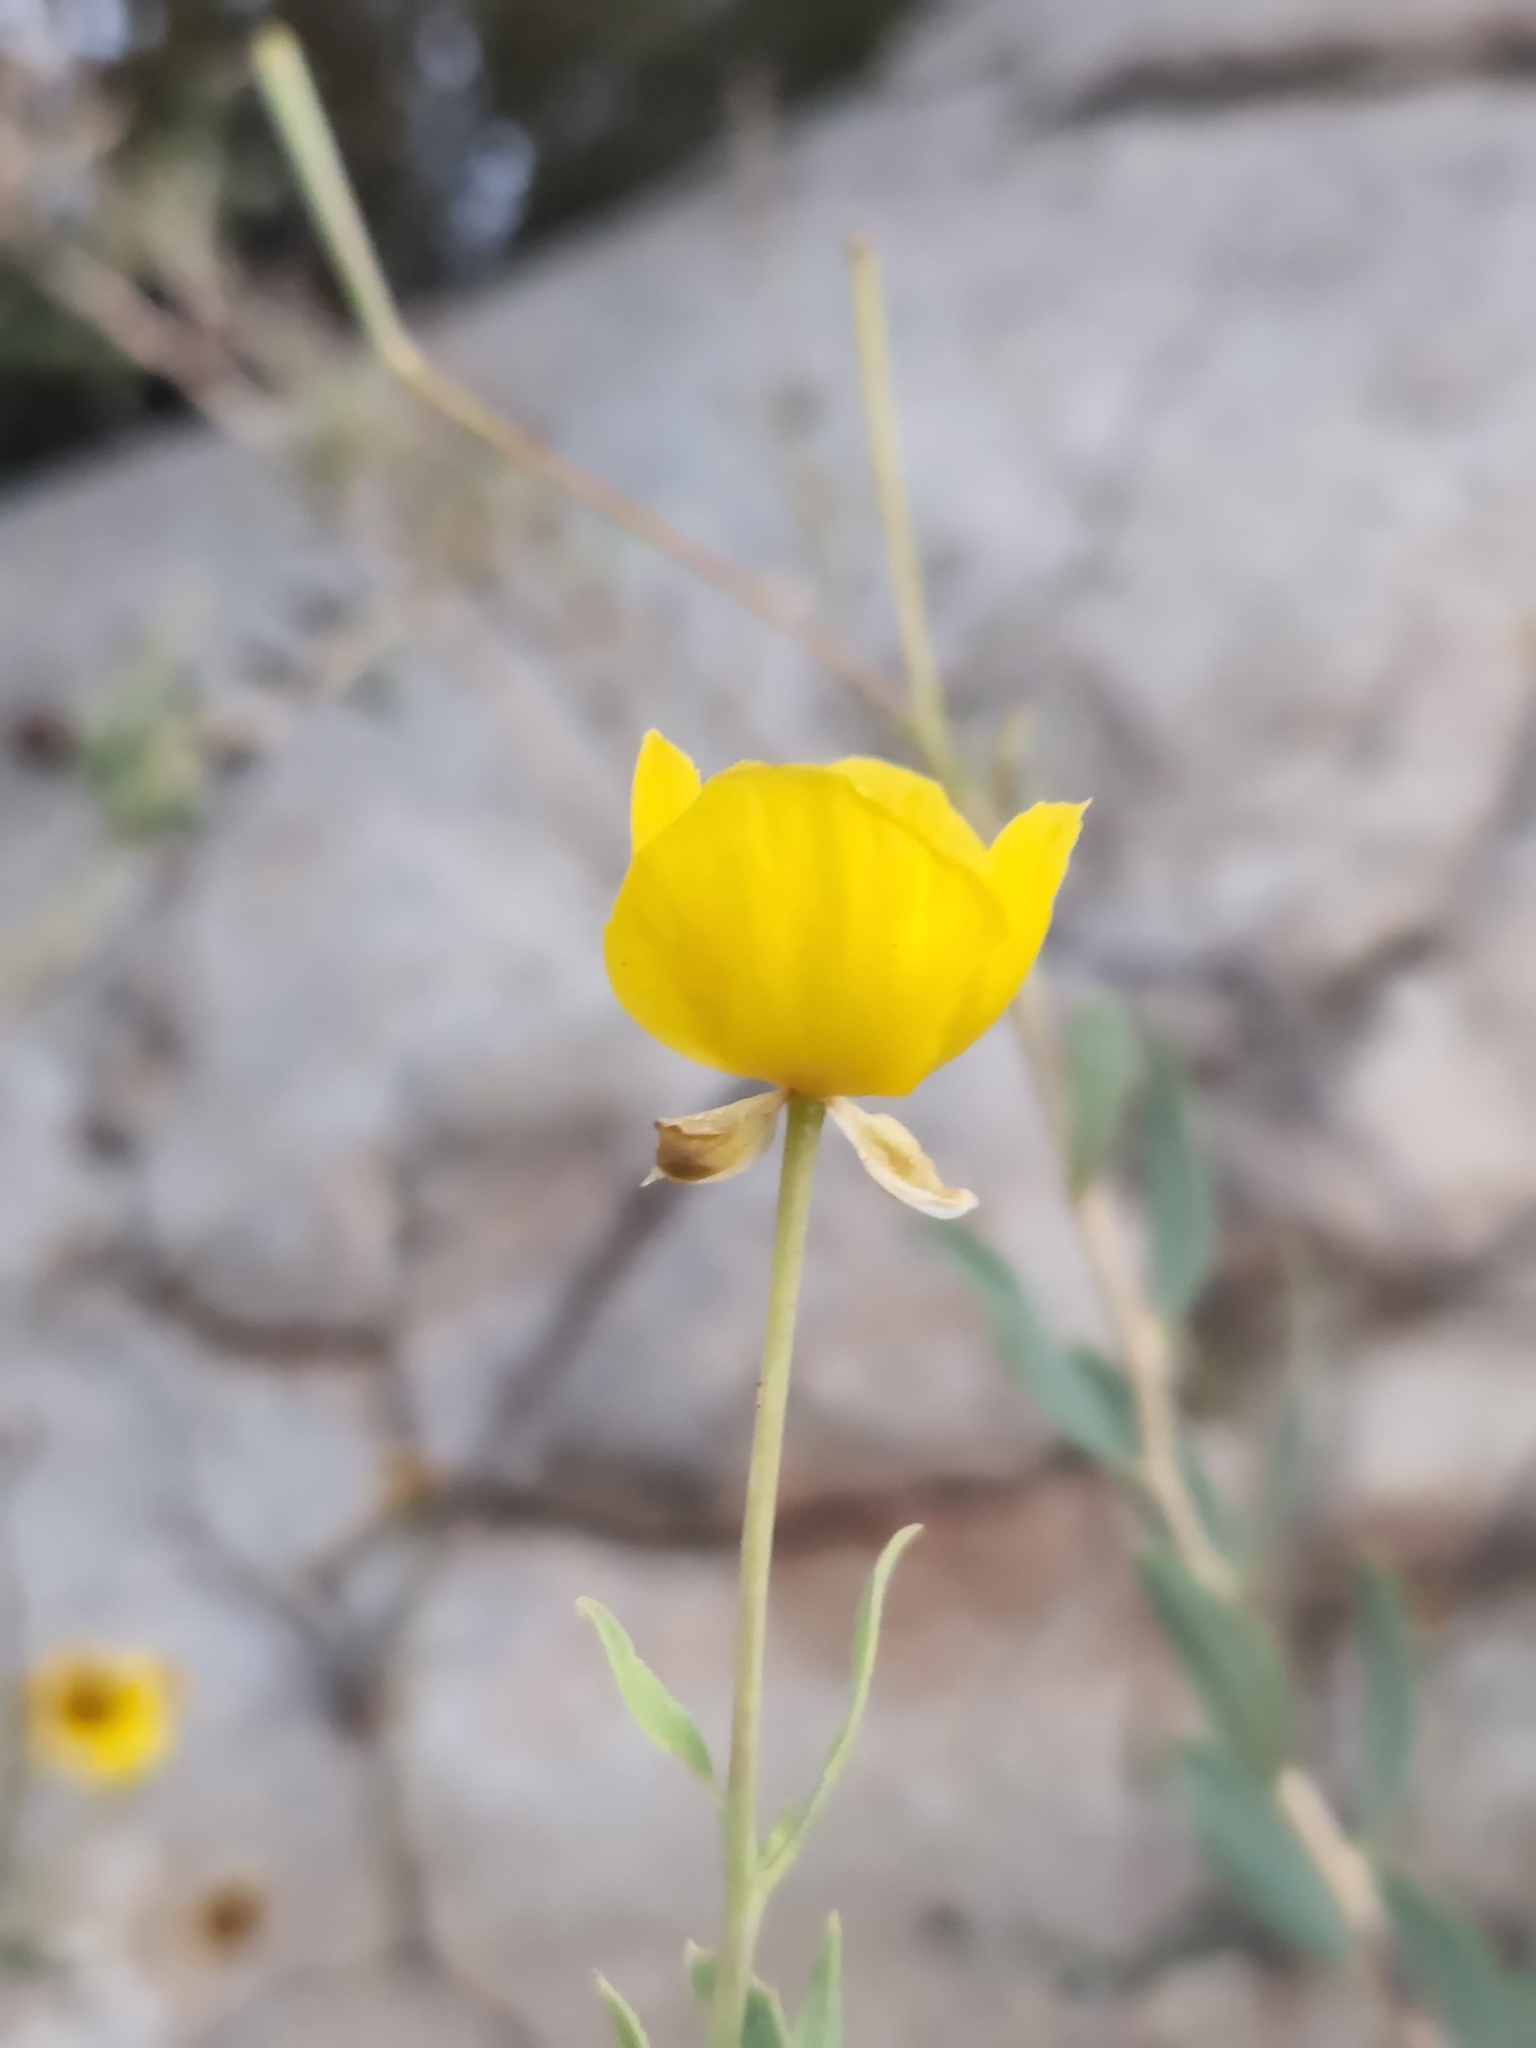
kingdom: Plantae
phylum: Tracheophyta
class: Magnoliopsida
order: Ranunculales
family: Papaveraceae
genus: Dendromecon
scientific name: Dendromecon rigida
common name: Tree poppy
